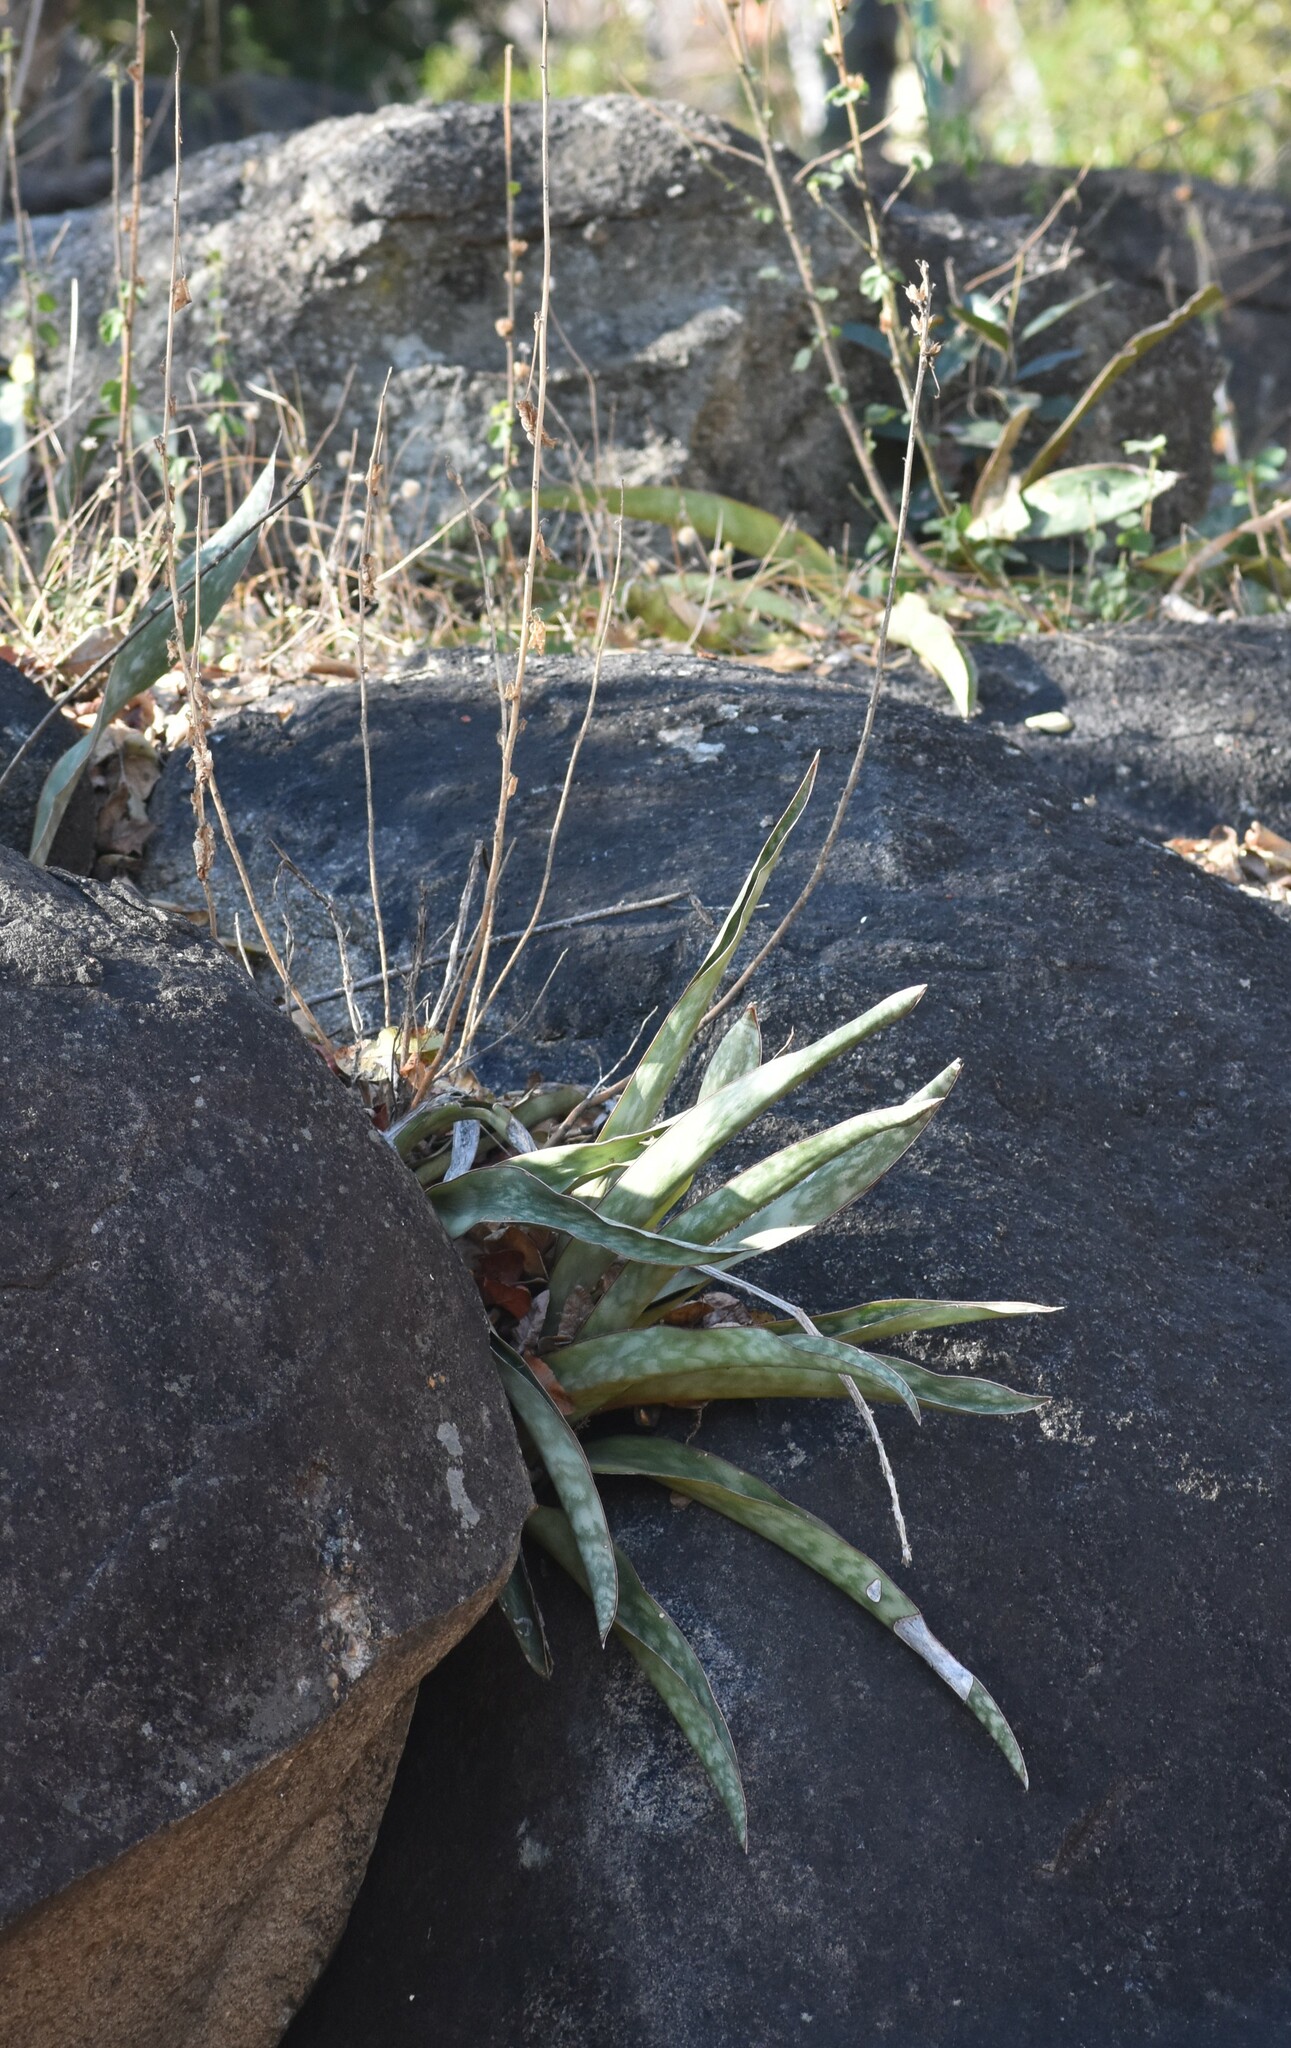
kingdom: Plantae
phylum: Tracheophyta
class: Liliopsida
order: Asparagales
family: Asparagaceae
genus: Dracaena
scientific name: Dracaena hyacinthoides
